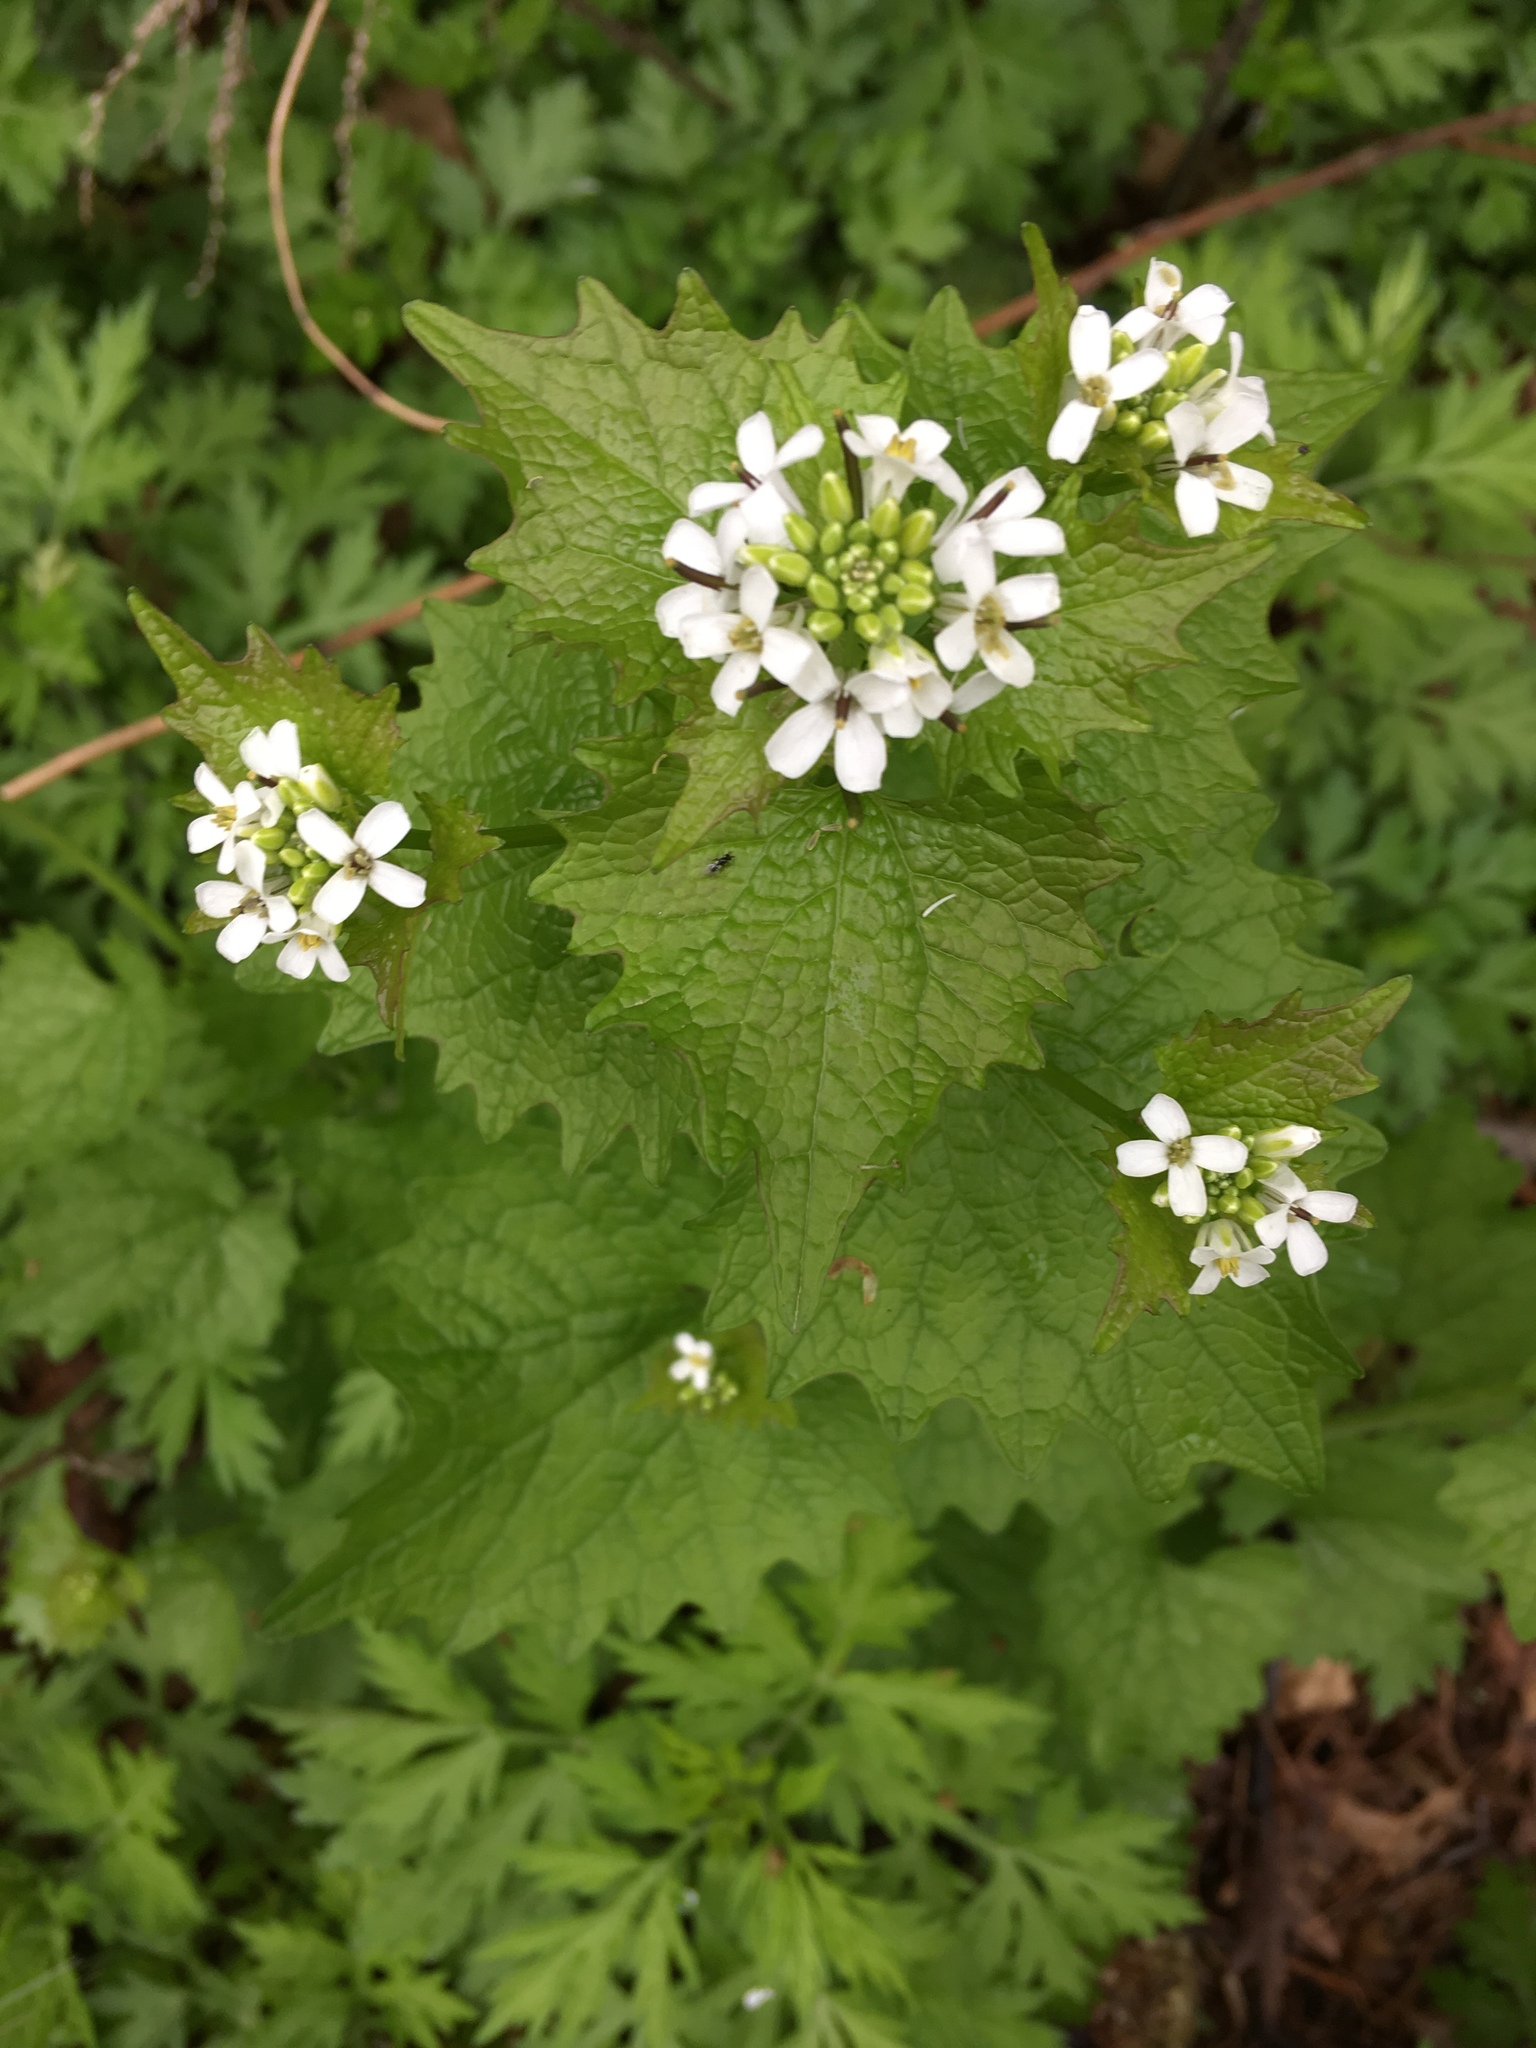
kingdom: Plantae
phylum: Tracheophyta
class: Magnoliopsida
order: Brassicales
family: Brassicaceae
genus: Alliaria
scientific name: Alliaria petiolata
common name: Garlic mustard
